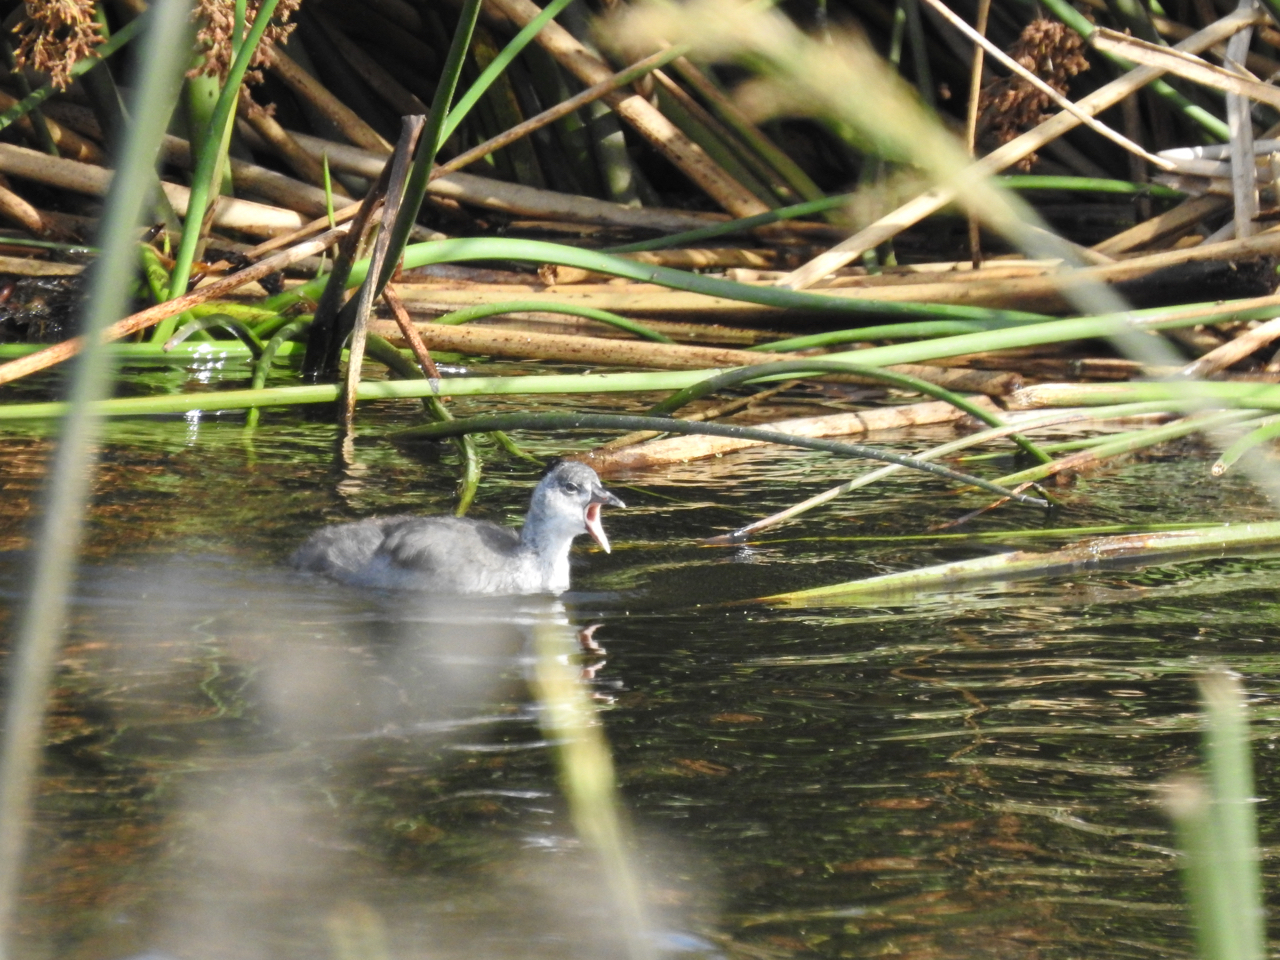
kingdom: Animalia
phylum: Chordata
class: Aves
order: Gruiformes
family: Rallidae
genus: Fulica
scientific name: Fulica americana
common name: American coot
